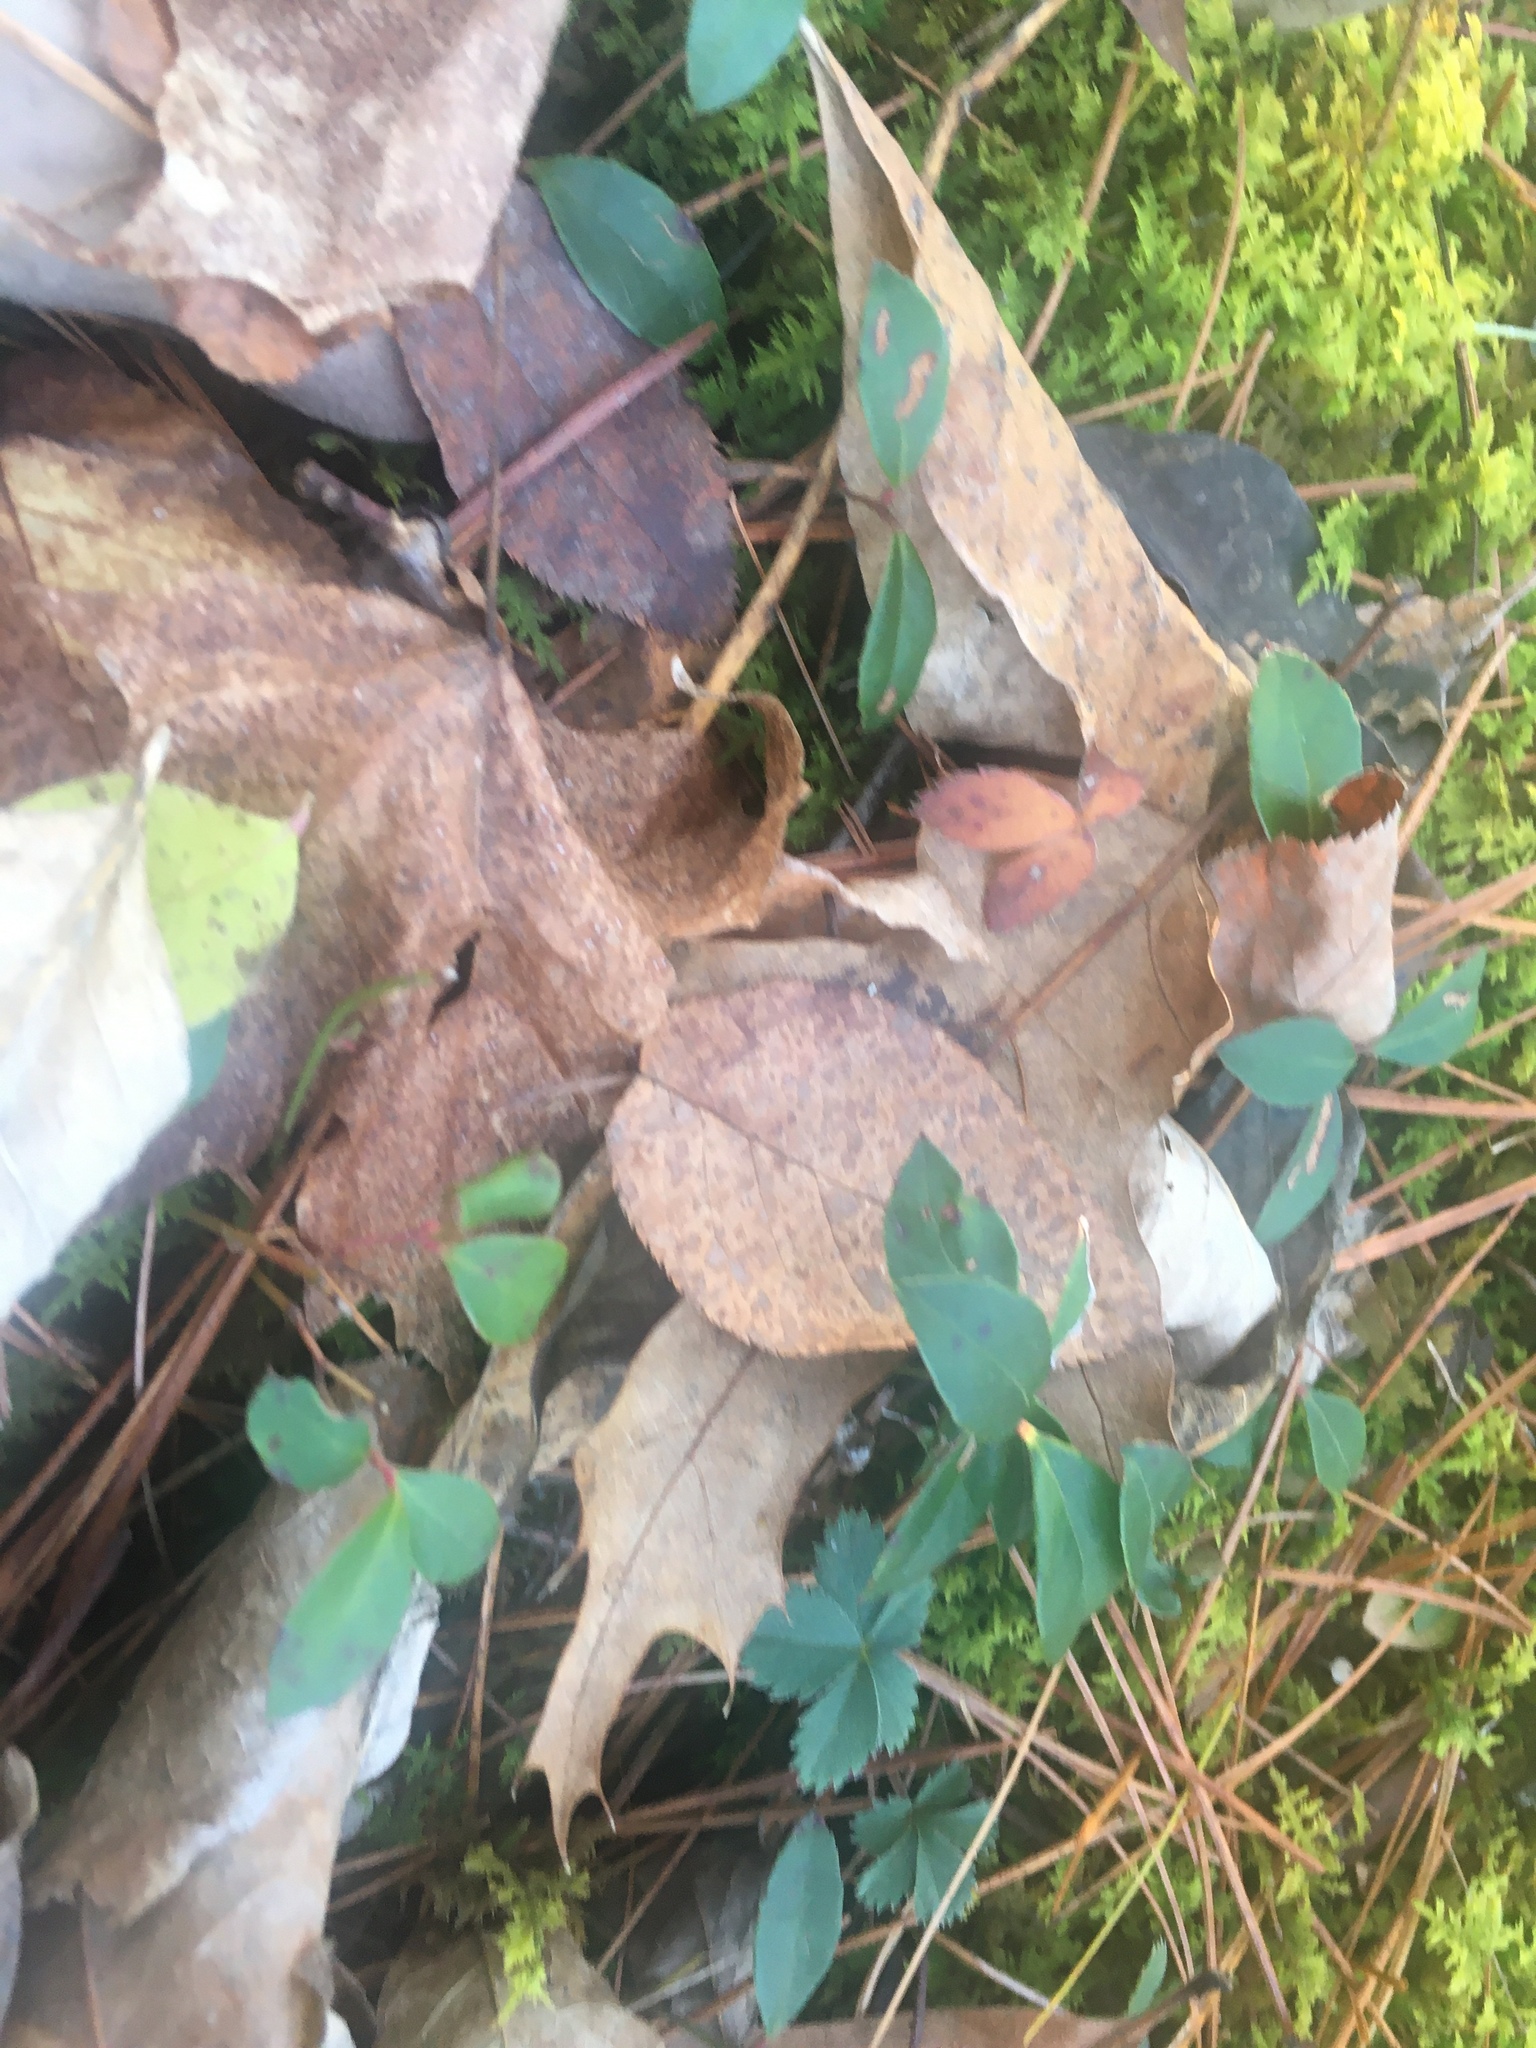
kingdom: Plantae
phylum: Tracheophyta
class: Magnoliopsida
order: Ericales
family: Ericaceae
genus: Gaultheria
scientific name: Gaultheria procumbens
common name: Checkerberry
